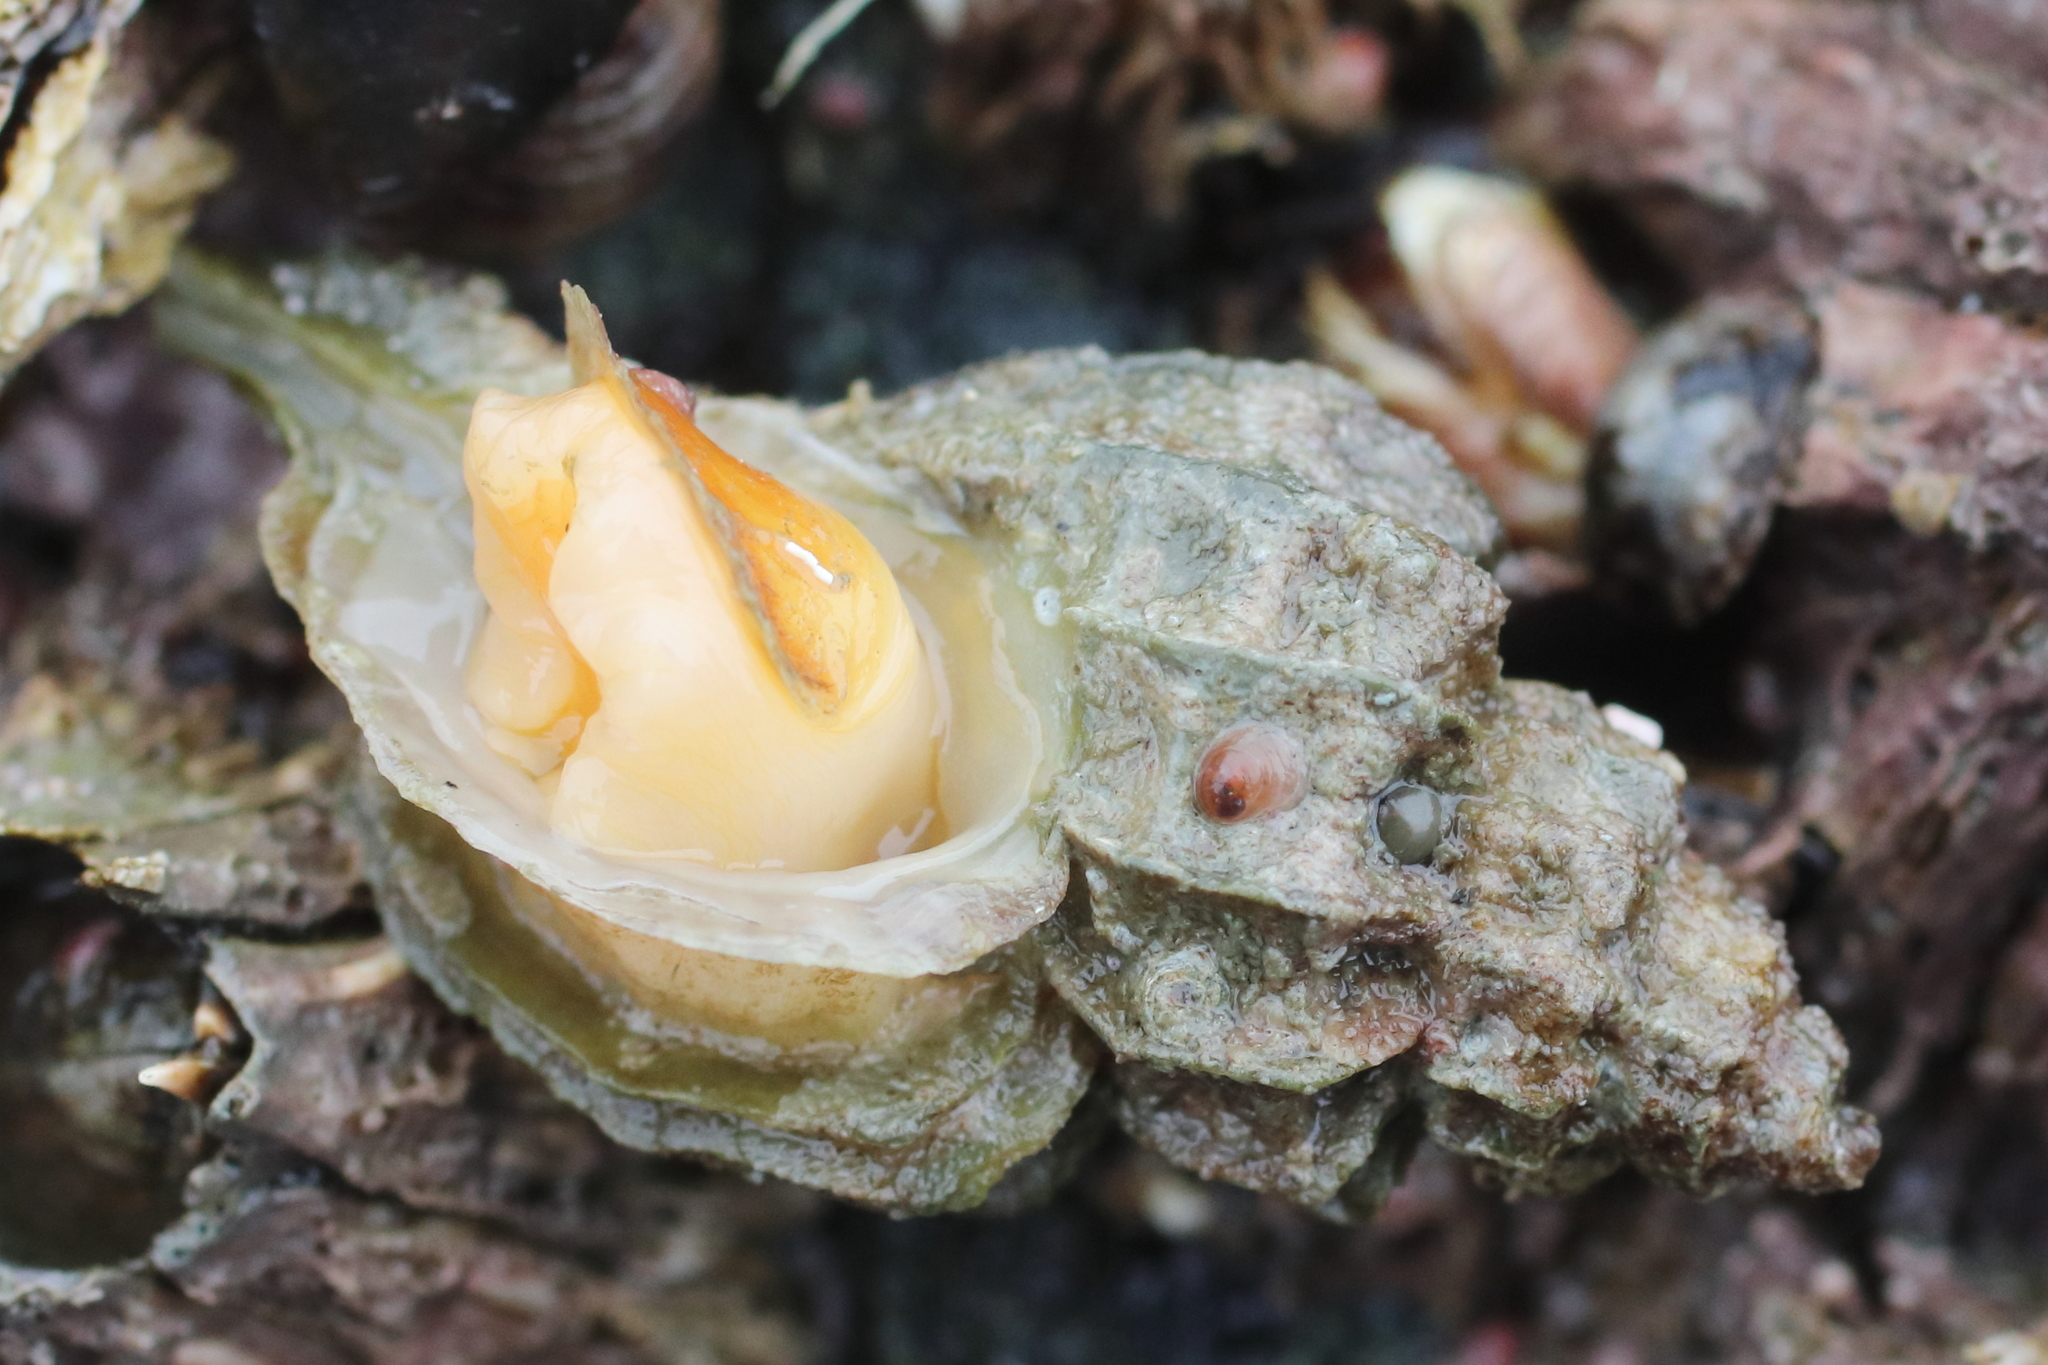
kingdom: Animalia
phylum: Mollusca
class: Gastropoda
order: Neogastropoda
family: Muricidae
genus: Scabrotrophon
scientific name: Scabrotrophon stuarti
